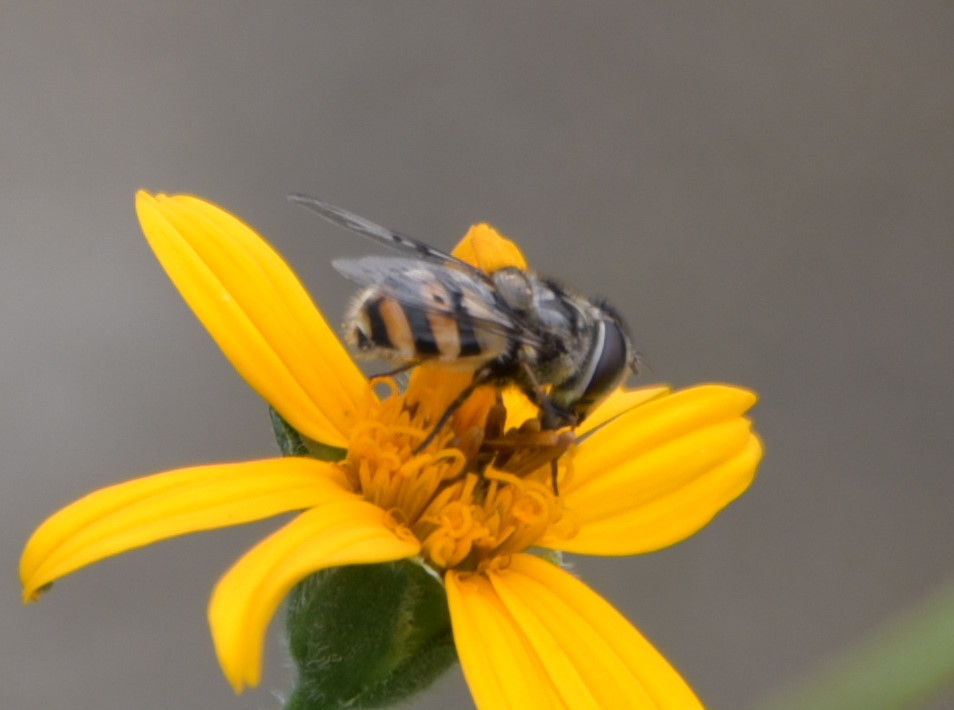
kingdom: Animalia
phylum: Arthropoda
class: Insecta
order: Diptera
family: Syrphidae
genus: Copestylum
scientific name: Copestylum avidum
